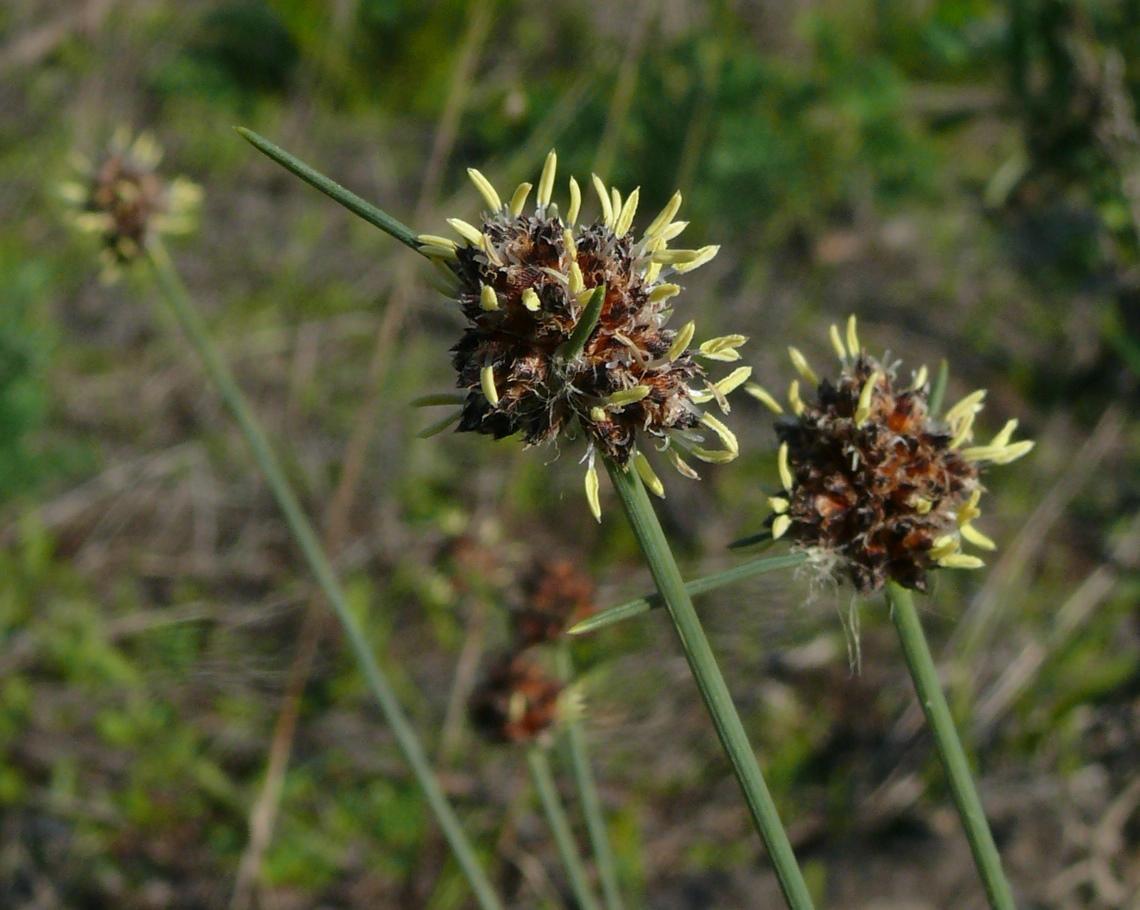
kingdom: Plantae
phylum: Tracheophyta
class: Liliopsida
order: Poales
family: Cyperaceae
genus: Ficinia
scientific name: Ficinia paradoxa
